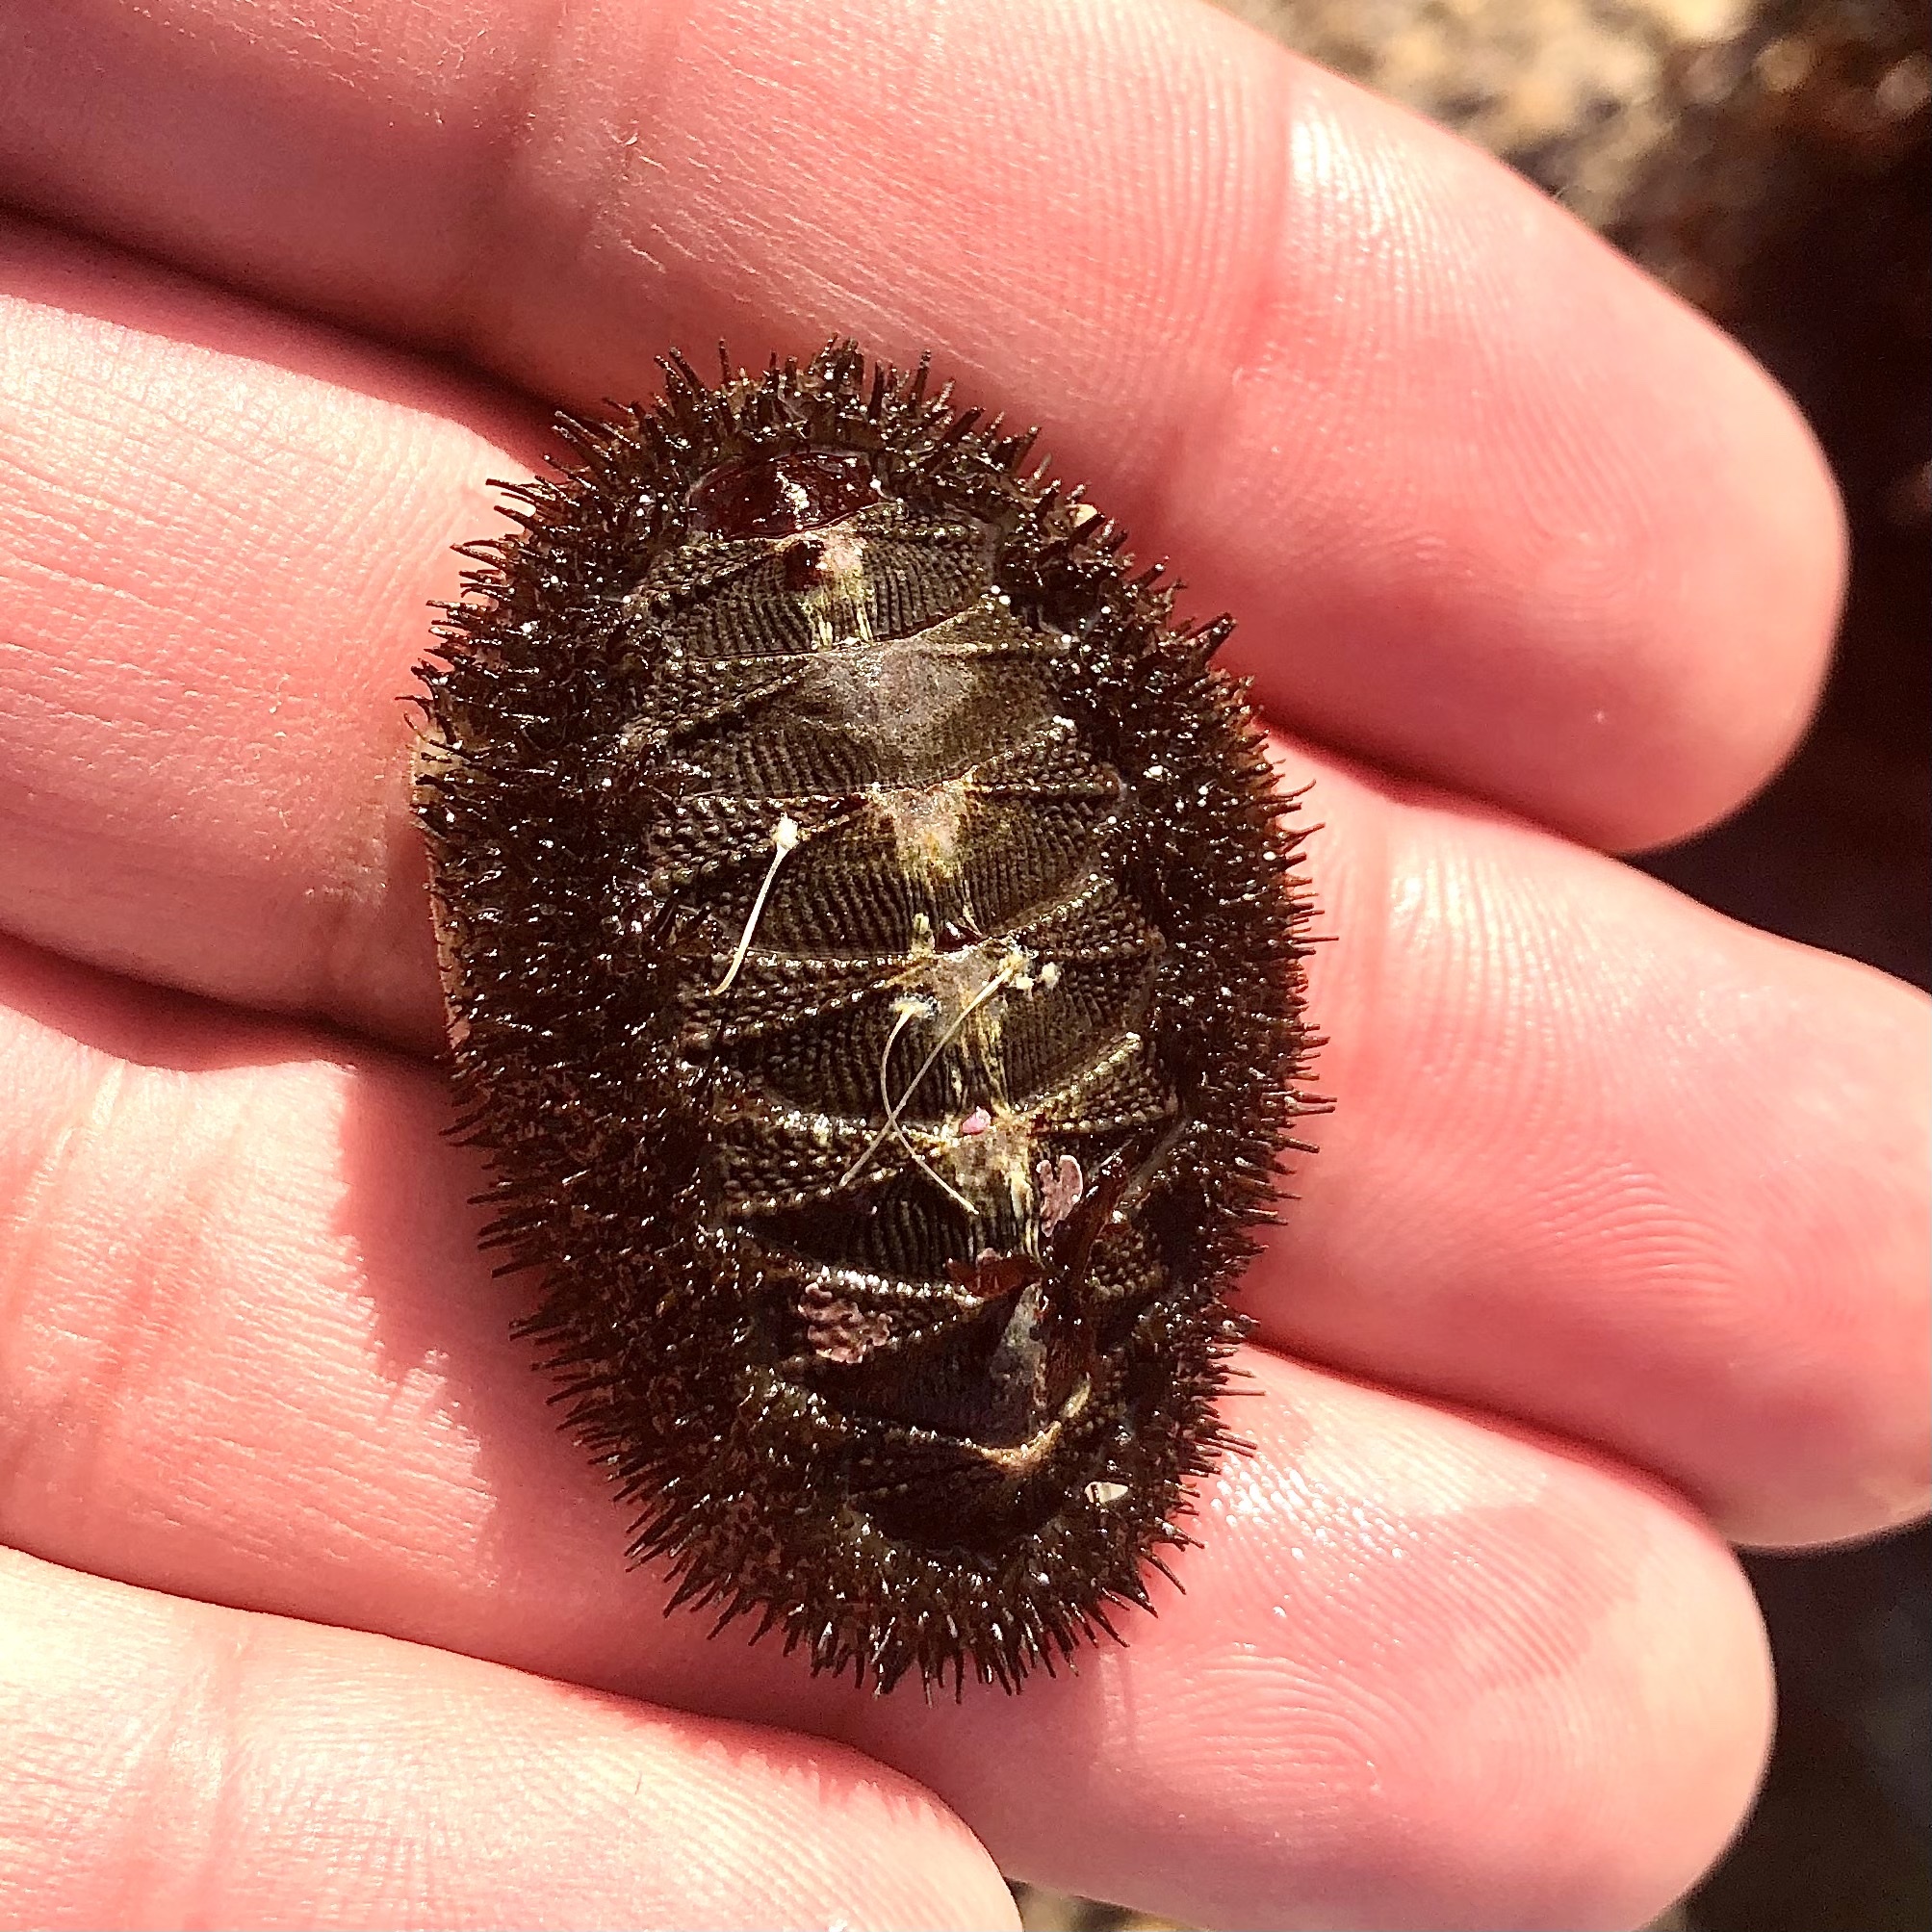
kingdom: Animalia
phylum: Mollusca
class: Polyplacophora
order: Chitonida
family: Mopaliidae
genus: Mopalia
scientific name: Mopalia muscosa
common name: Mossy chiton
